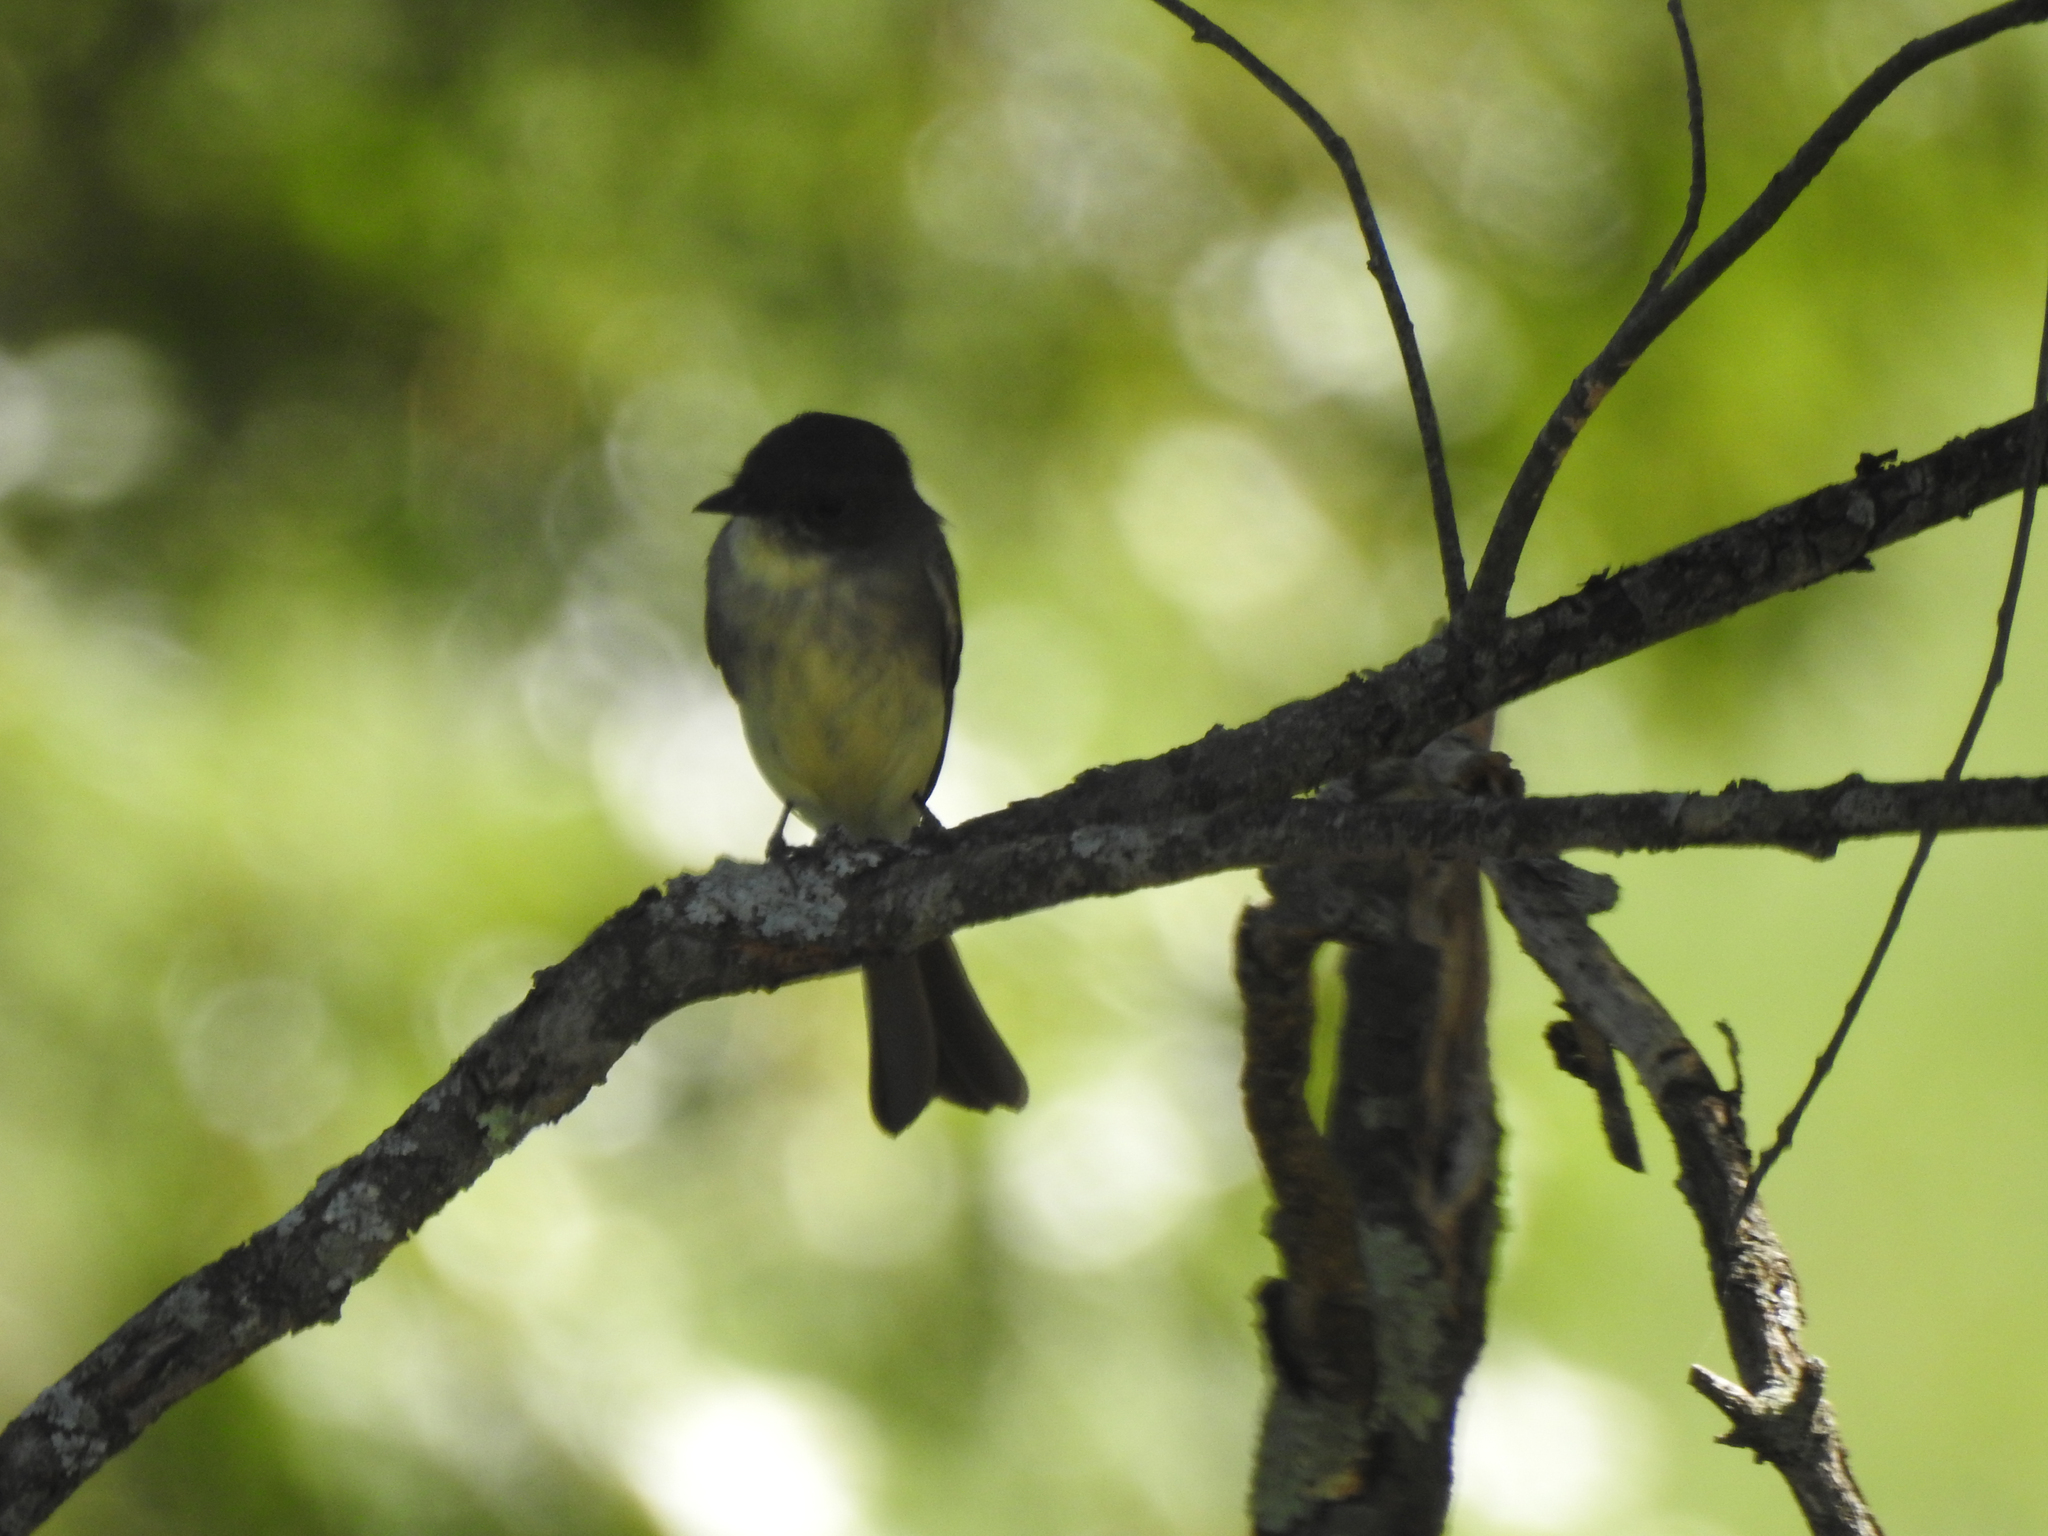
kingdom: Animalia
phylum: Chordata
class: Aves
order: Passeriformes
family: Tyrannidae
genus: Sayornis
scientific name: Sayornis phoebe
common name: Eastern phoebe
